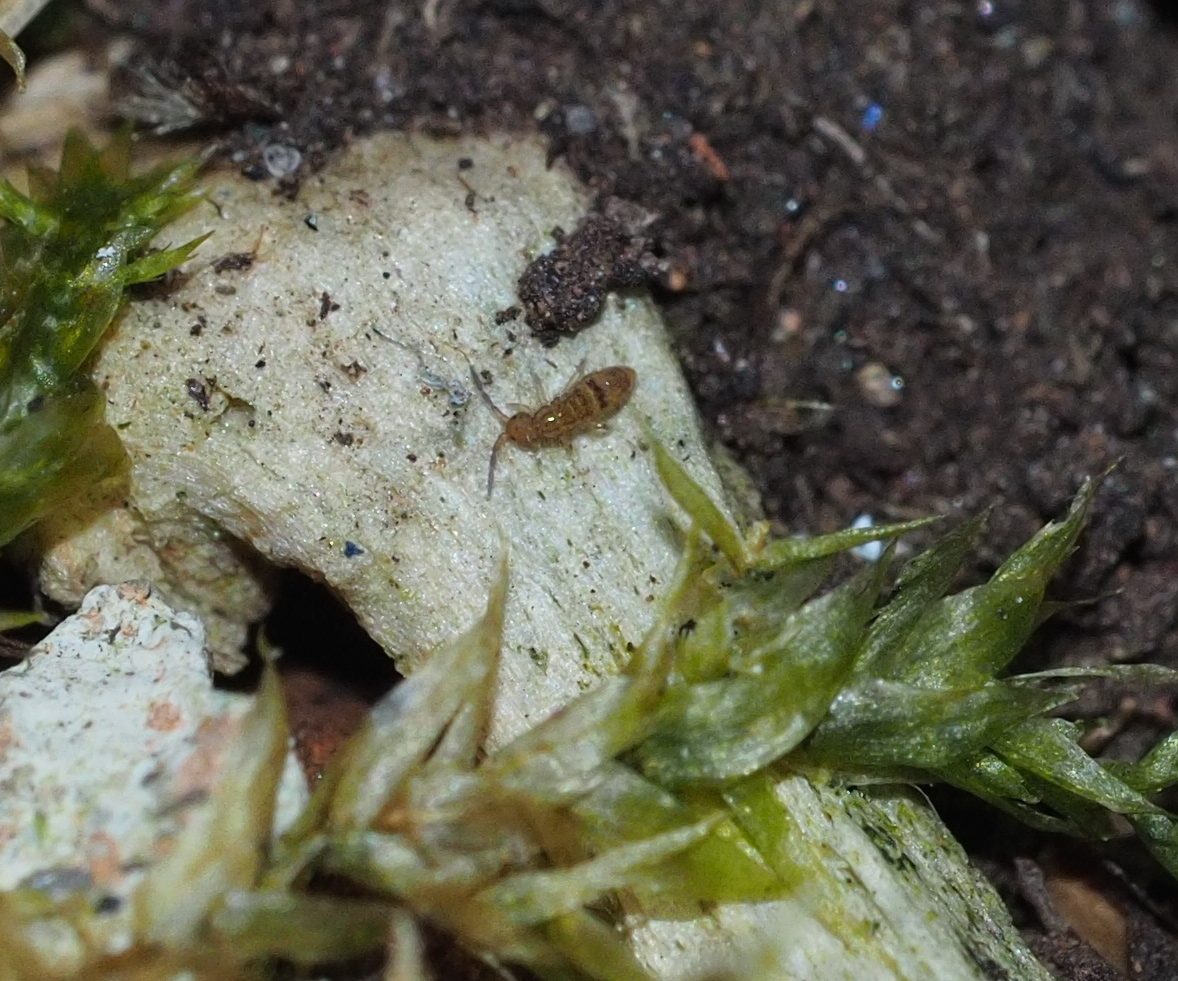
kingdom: Animalia
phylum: Arthropoda
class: Collembola
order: Entomobryomorpha
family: Orchesellidae
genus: Orchesella
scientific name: Orchesella cincta
